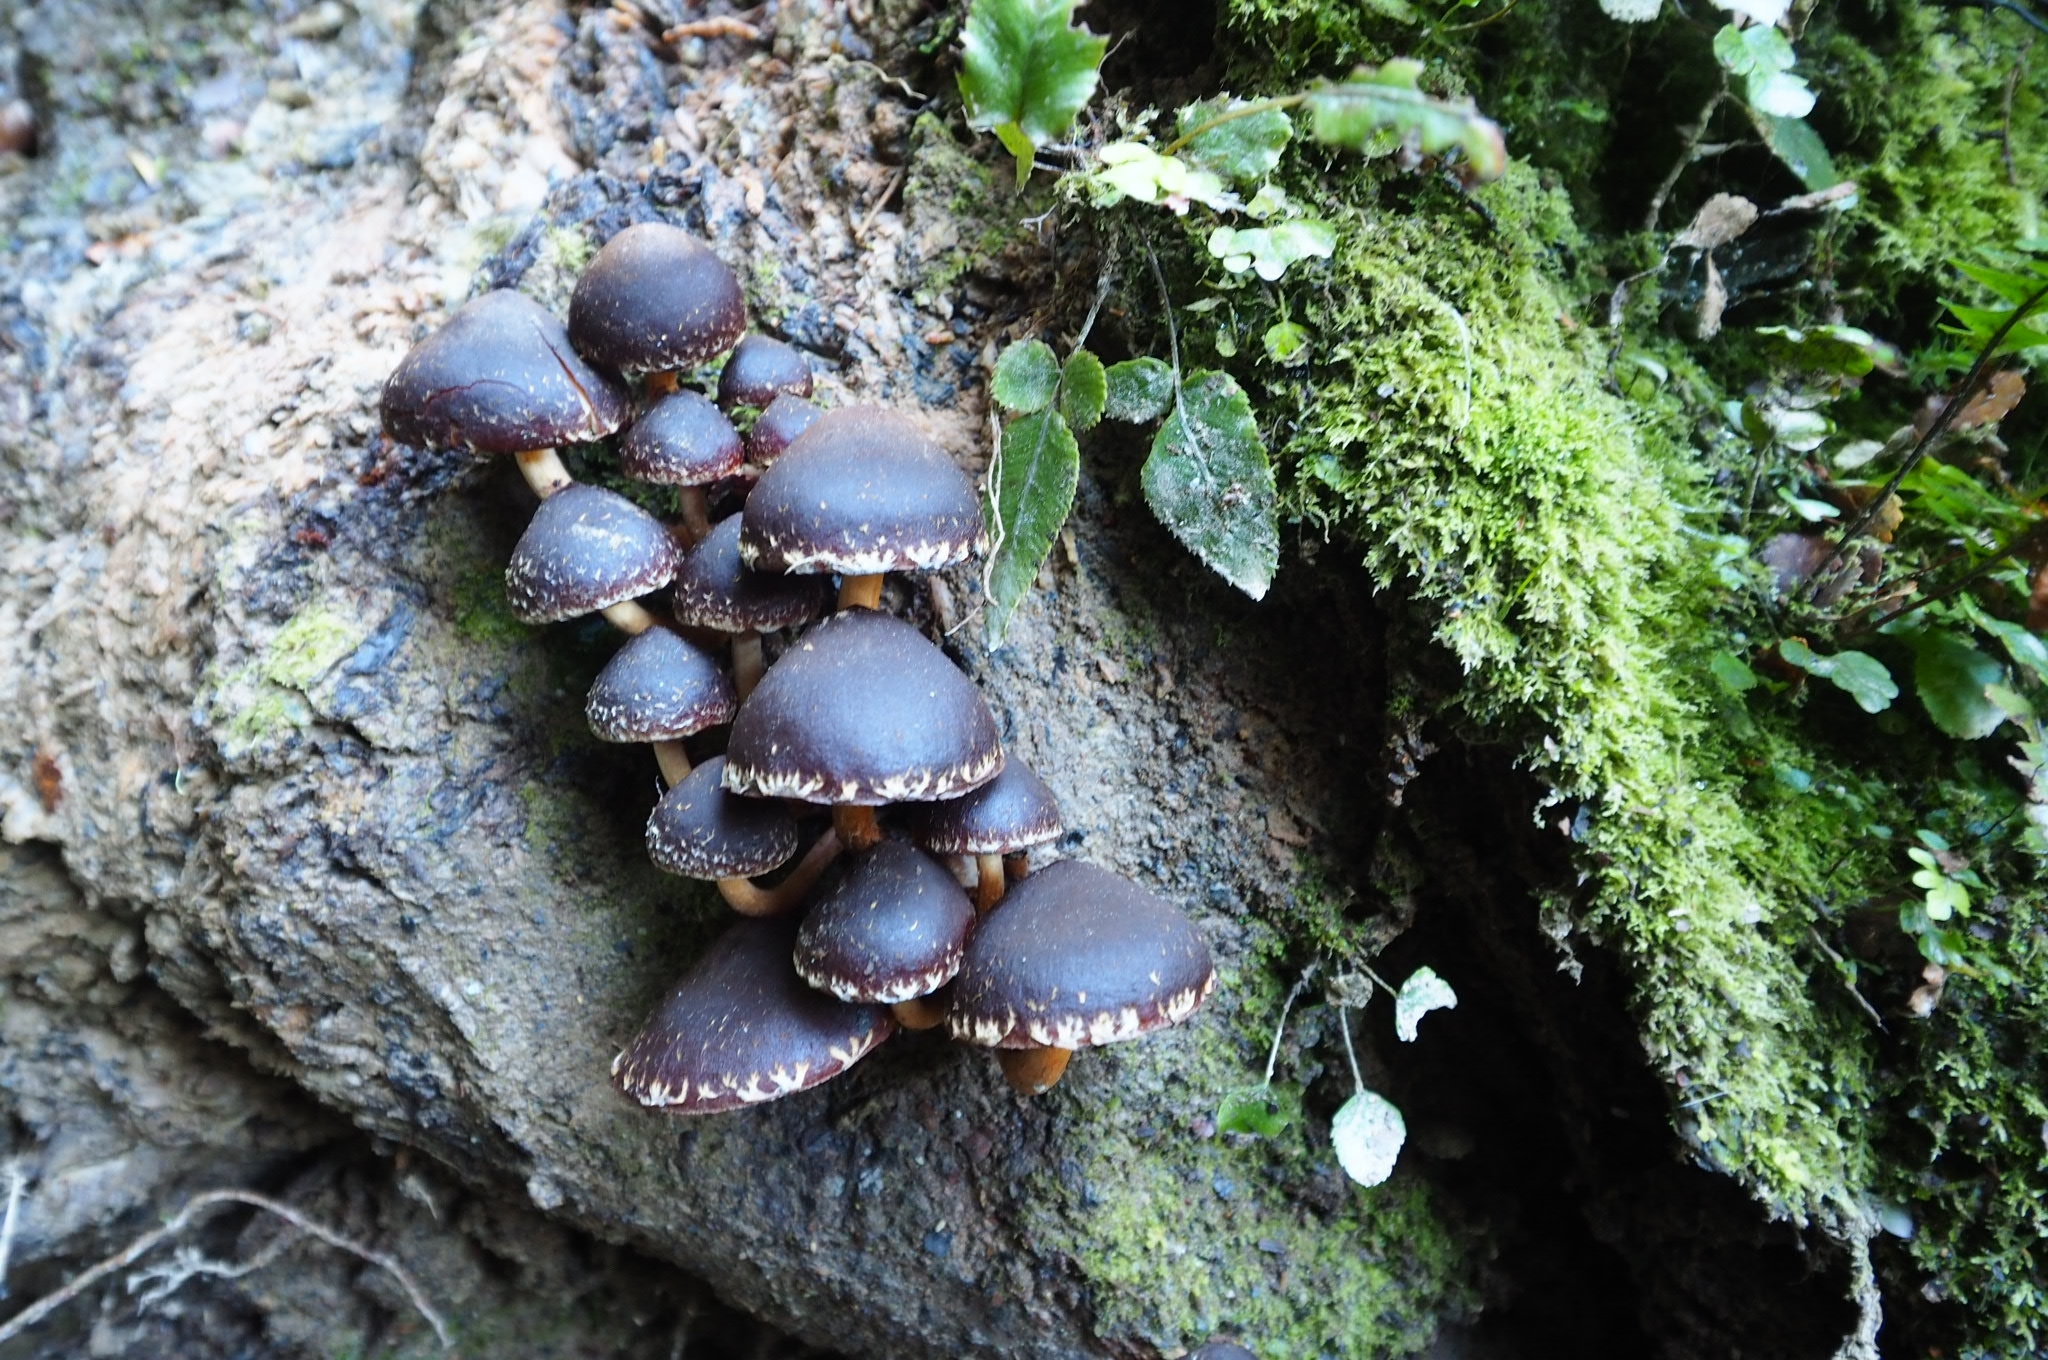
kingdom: Fungi
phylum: Basidiomycota
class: Agaricomycetes
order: Agaricales
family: Strophariaceae
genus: Hypholoma
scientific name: Hypholoma brunneum
